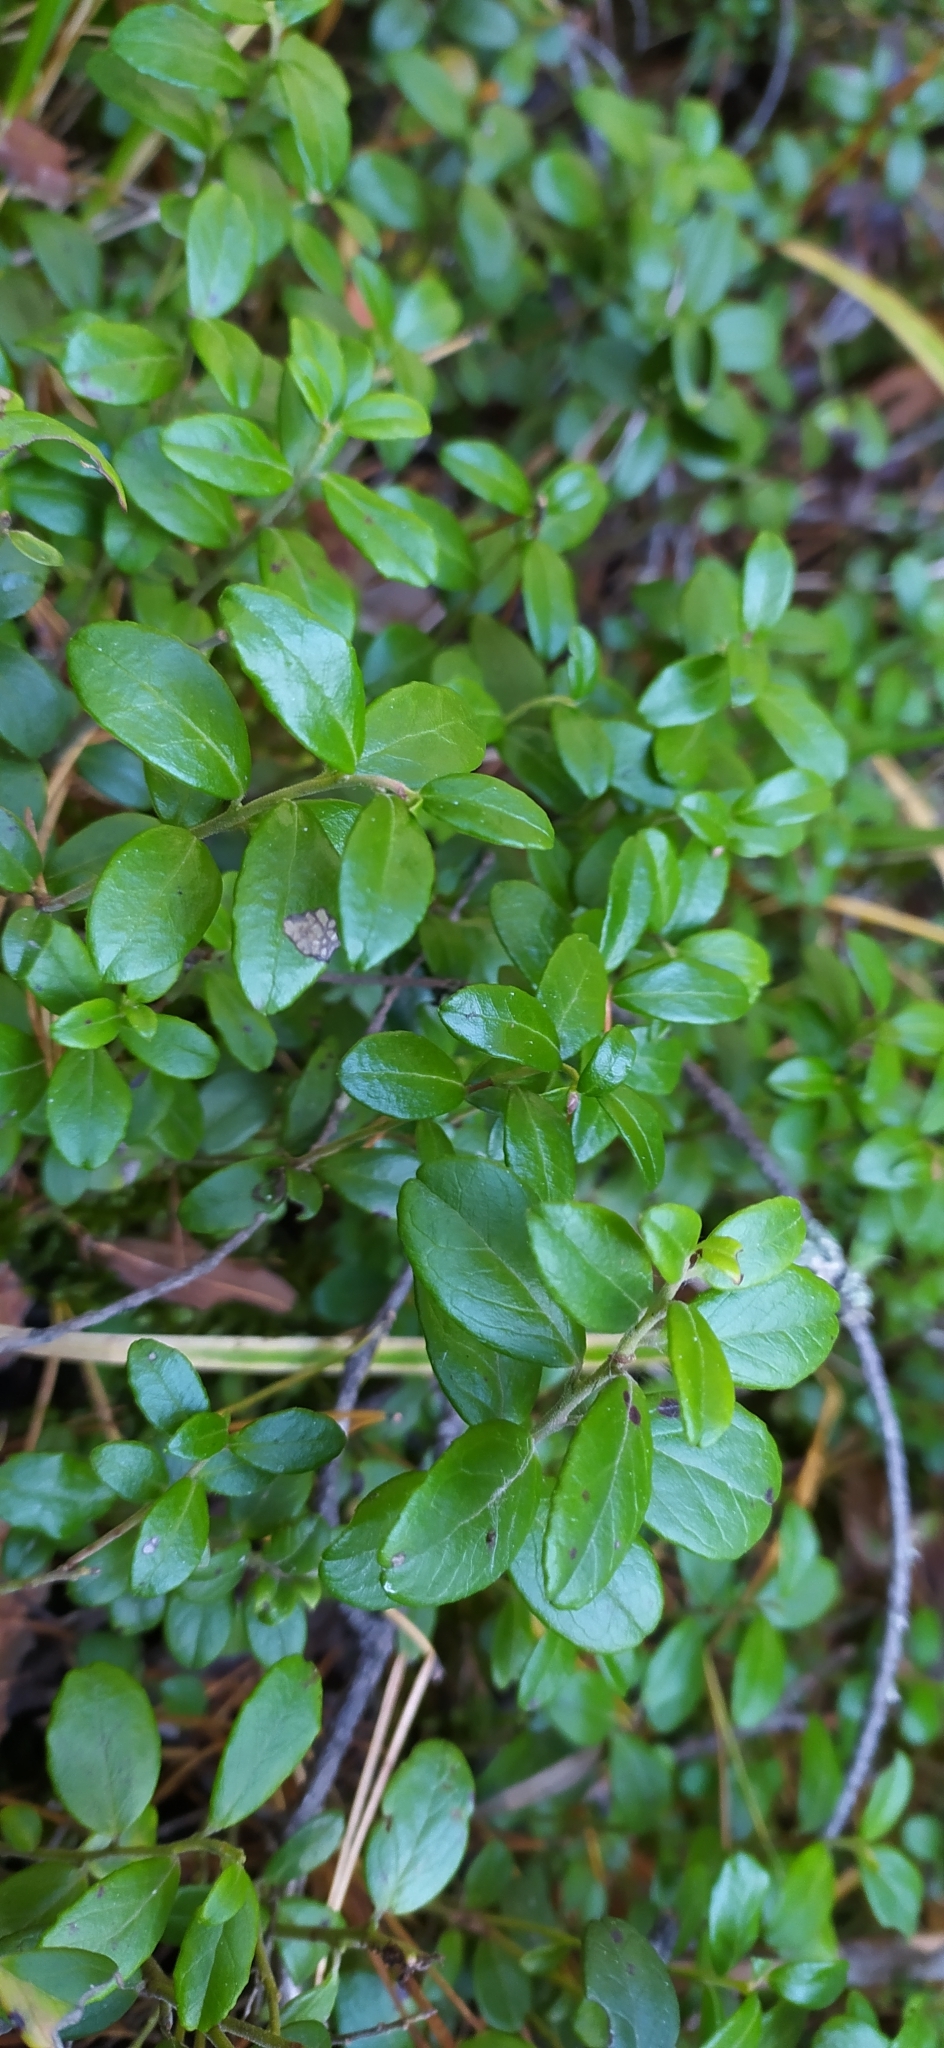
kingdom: Plantae
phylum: Tracheophyta
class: Magnoliopsida
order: Ericales
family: Ericaceae
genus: Vaccinium
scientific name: Vaccinium vitis-idaea
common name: Cowberry
